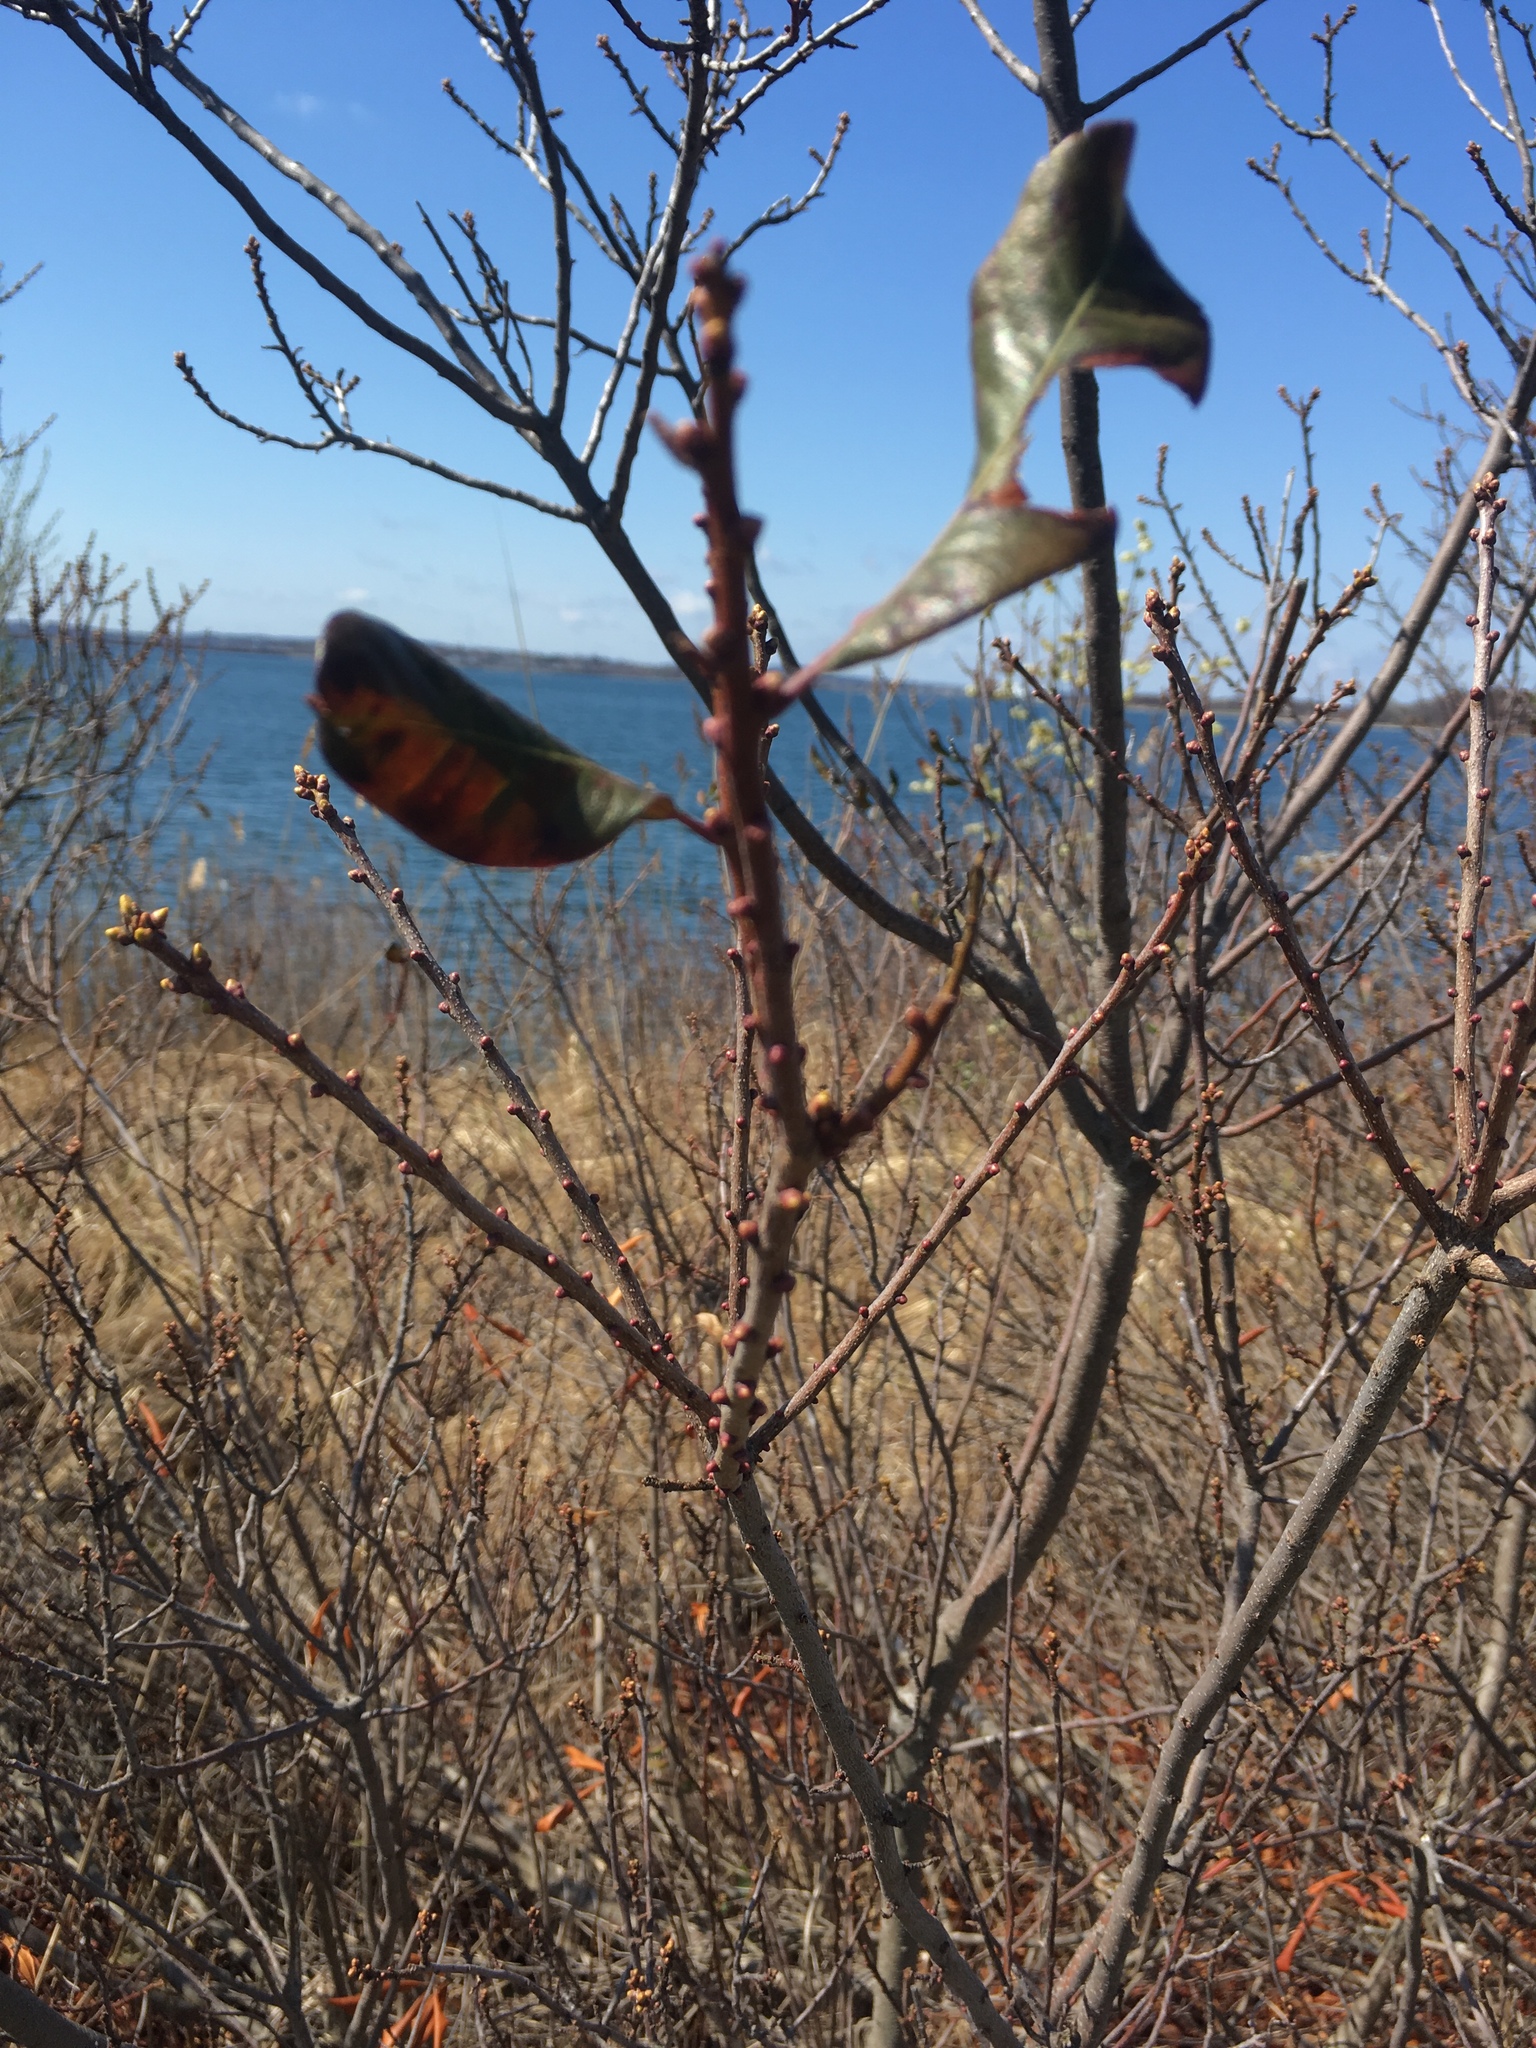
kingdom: Plantae
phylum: Tracheophyta
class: Magnoliopsida
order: Fagales
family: Myricaceae
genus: Morella
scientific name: Morella pensylvanica
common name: Northern bayberry
